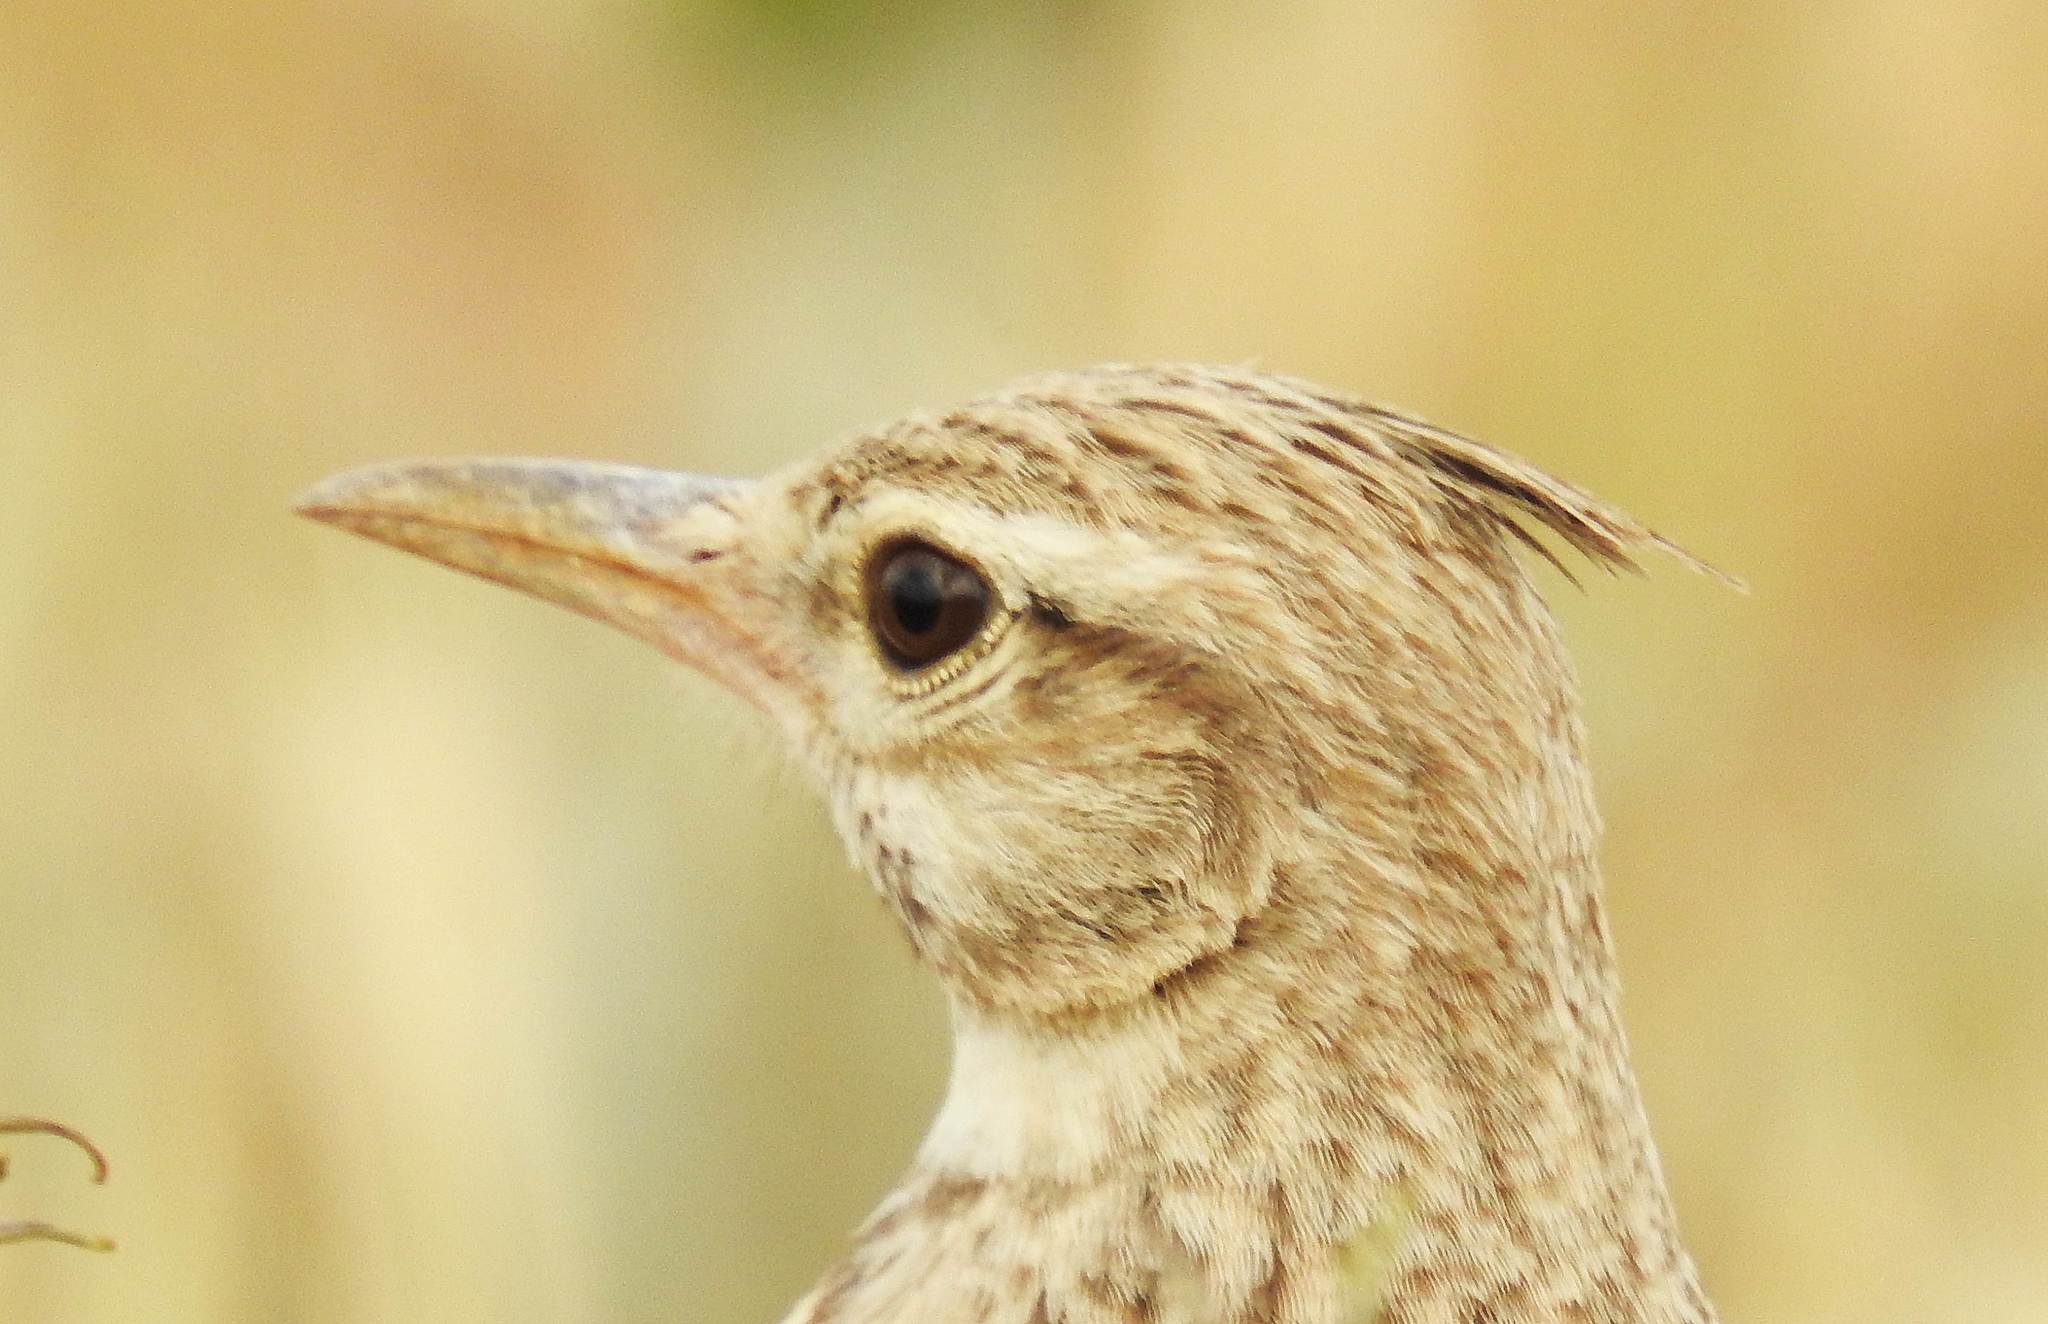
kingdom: Animalia
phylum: Chordata
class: Aves
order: Passeriformes
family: Alaudidae
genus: Galerida
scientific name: Galerida cristata
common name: Crested lark
